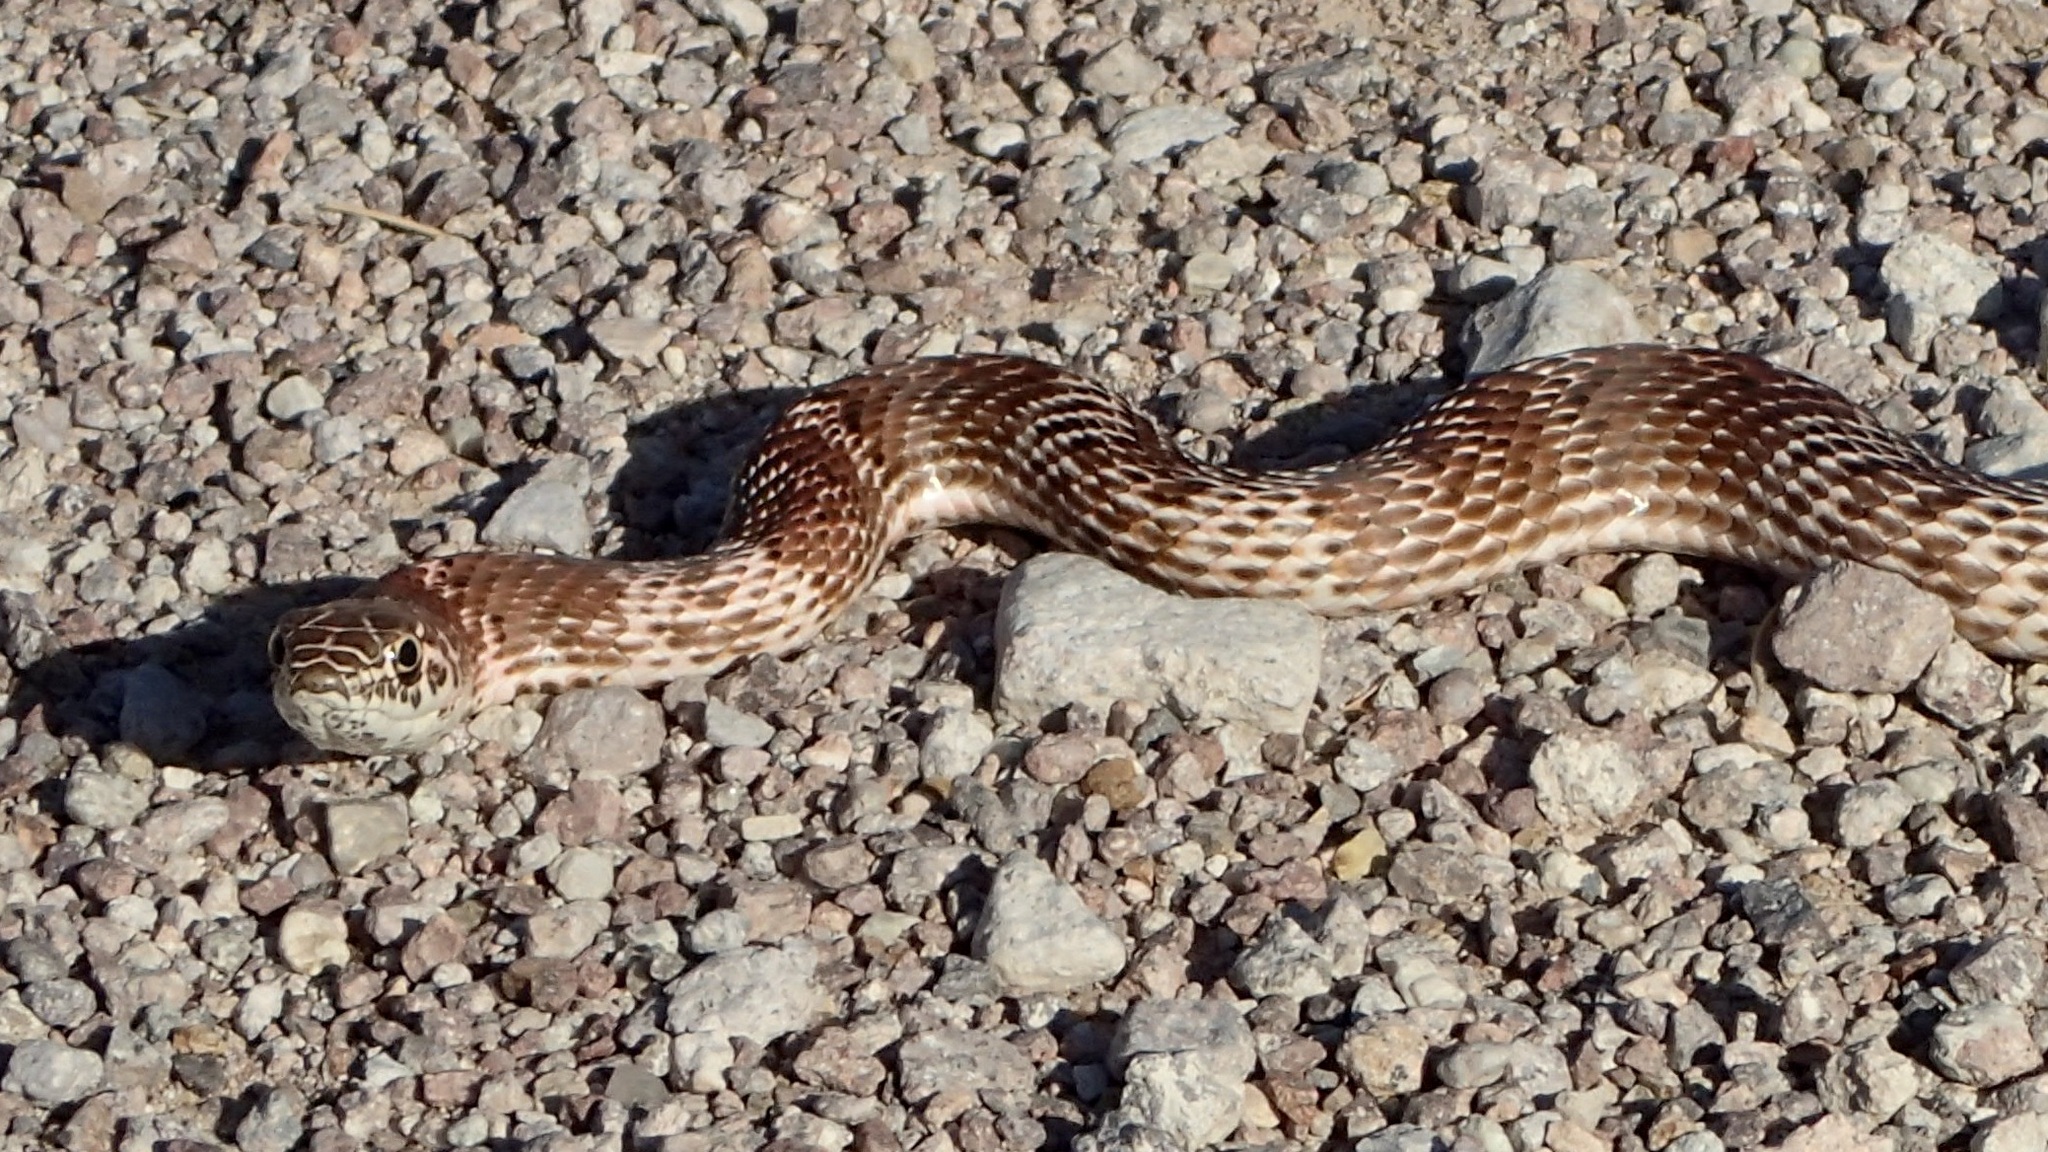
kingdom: Animalia
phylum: Chordata
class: Squamata
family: Colubridae
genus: Masticophis
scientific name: Masticophis flagellum
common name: Coachwhip
